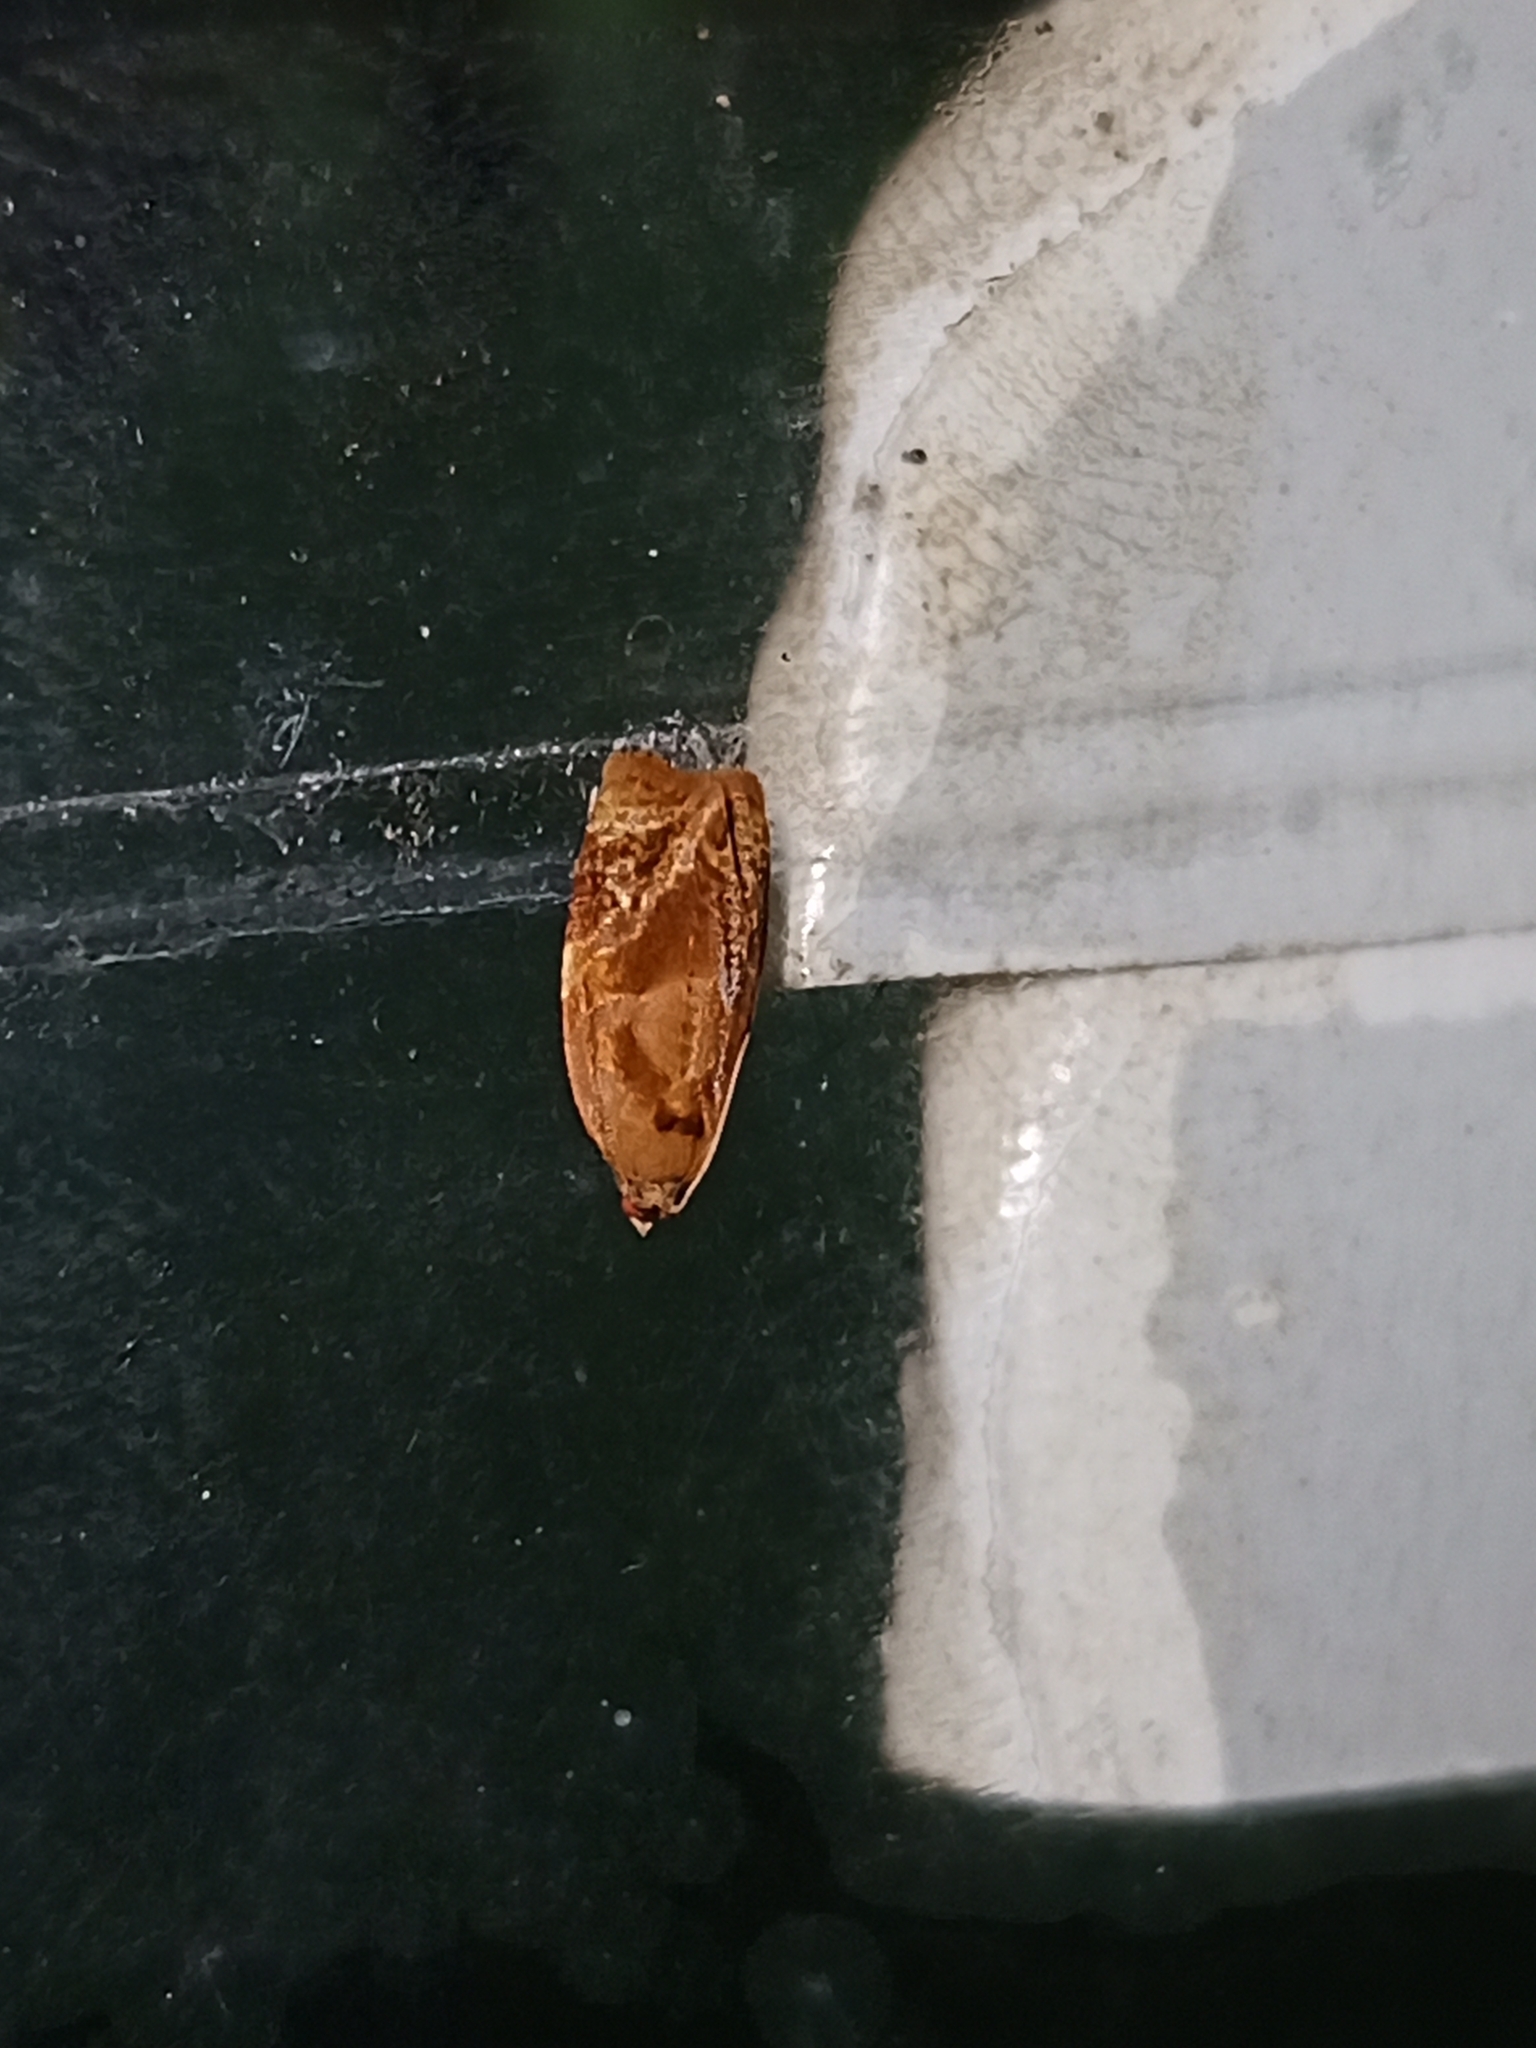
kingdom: Animalia
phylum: Arthropoda
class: Insecta
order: Lepidoptera
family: Tortricidae
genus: Ditula
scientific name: Ditula angustiorana
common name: Red-barred tortrix
